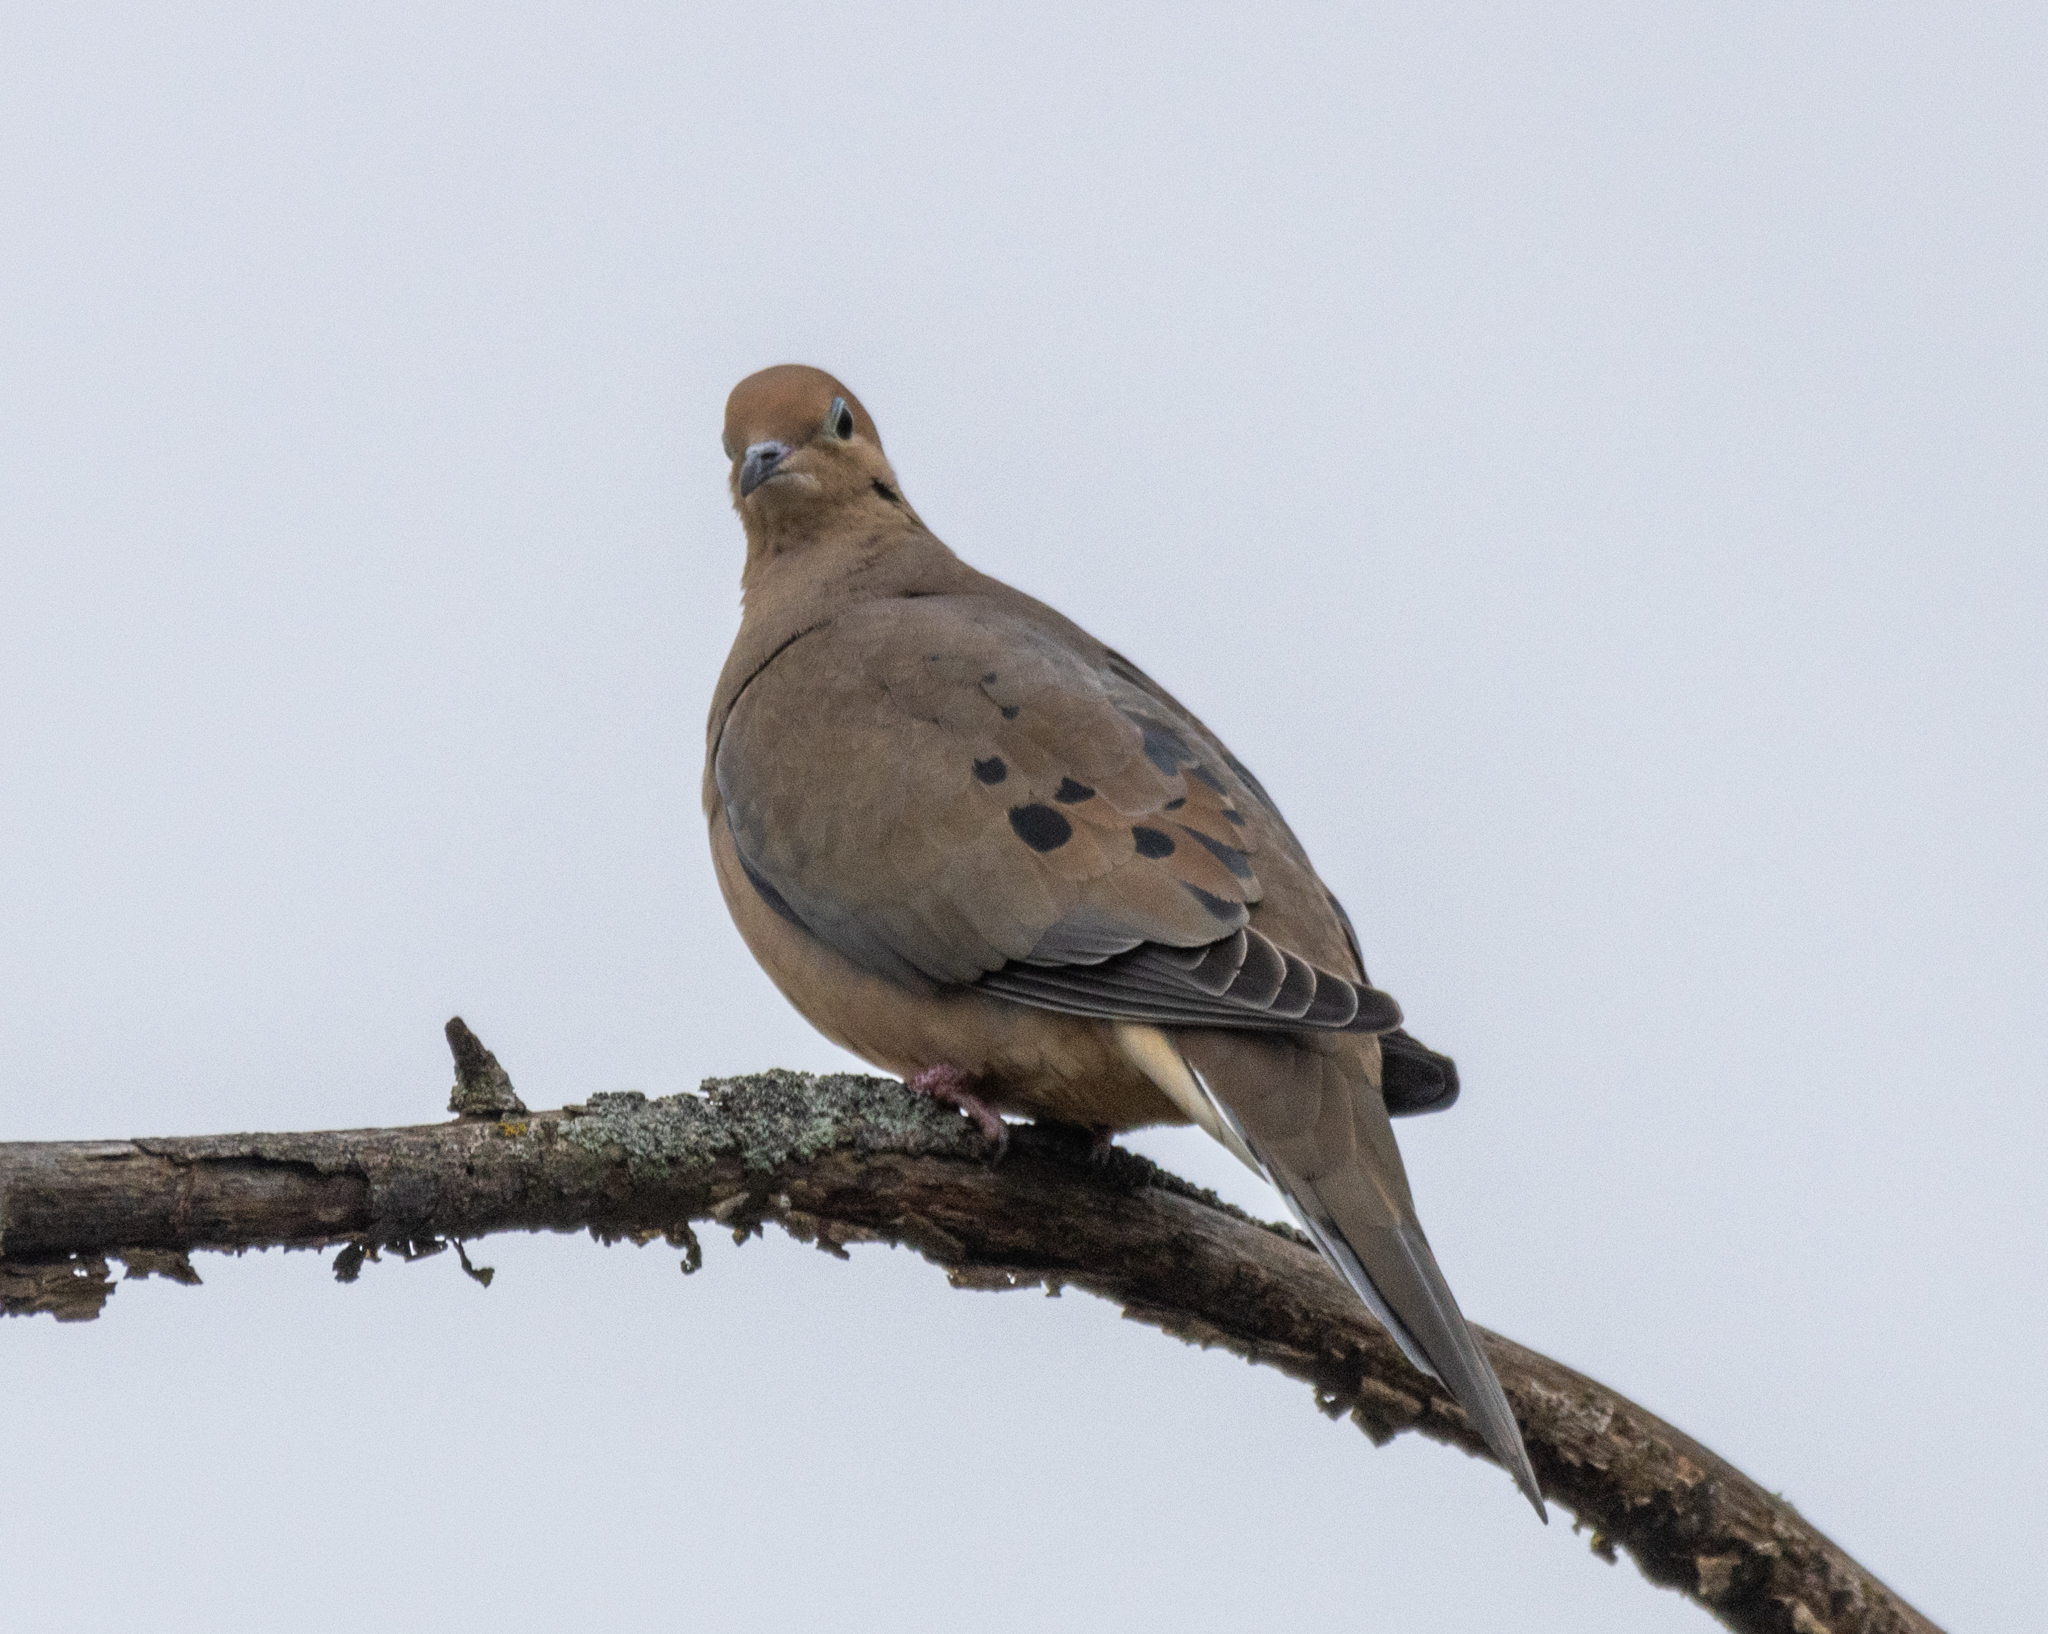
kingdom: Animalia
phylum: Chordata
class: Aves
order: Columbiformes
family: Columbidae
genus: Zenaida
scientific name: Zenaida macroura
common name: Mourning dove
